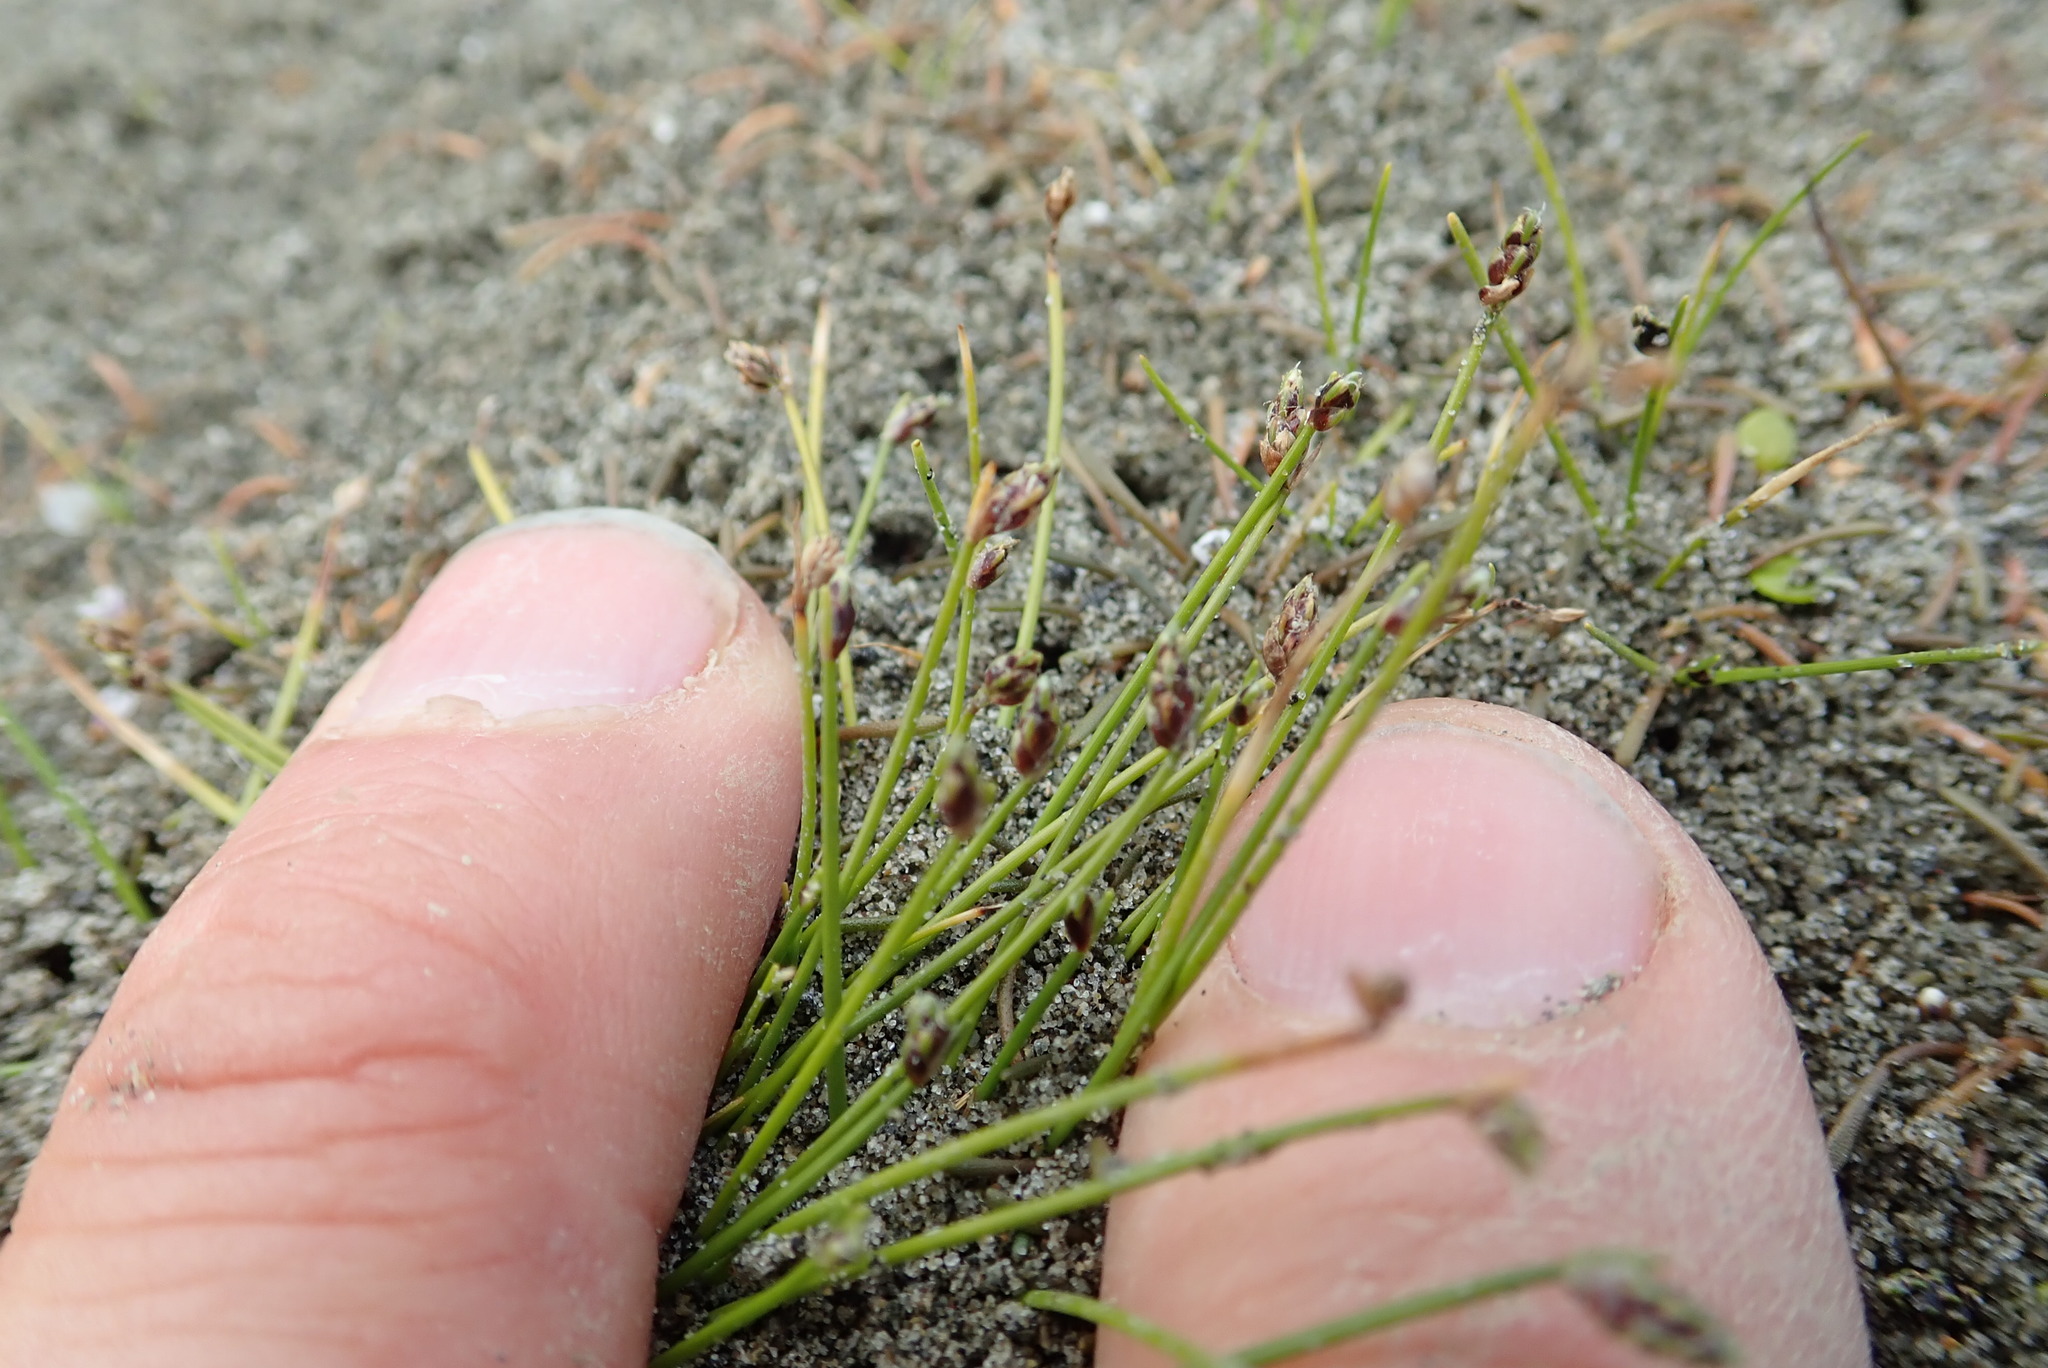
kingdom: Plantae
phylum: Tracheophyta
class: Liliopsida
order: Poales
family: Cyperaceae
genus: Isolepis
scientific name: Isolepis cernua
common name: Slender club-rush
